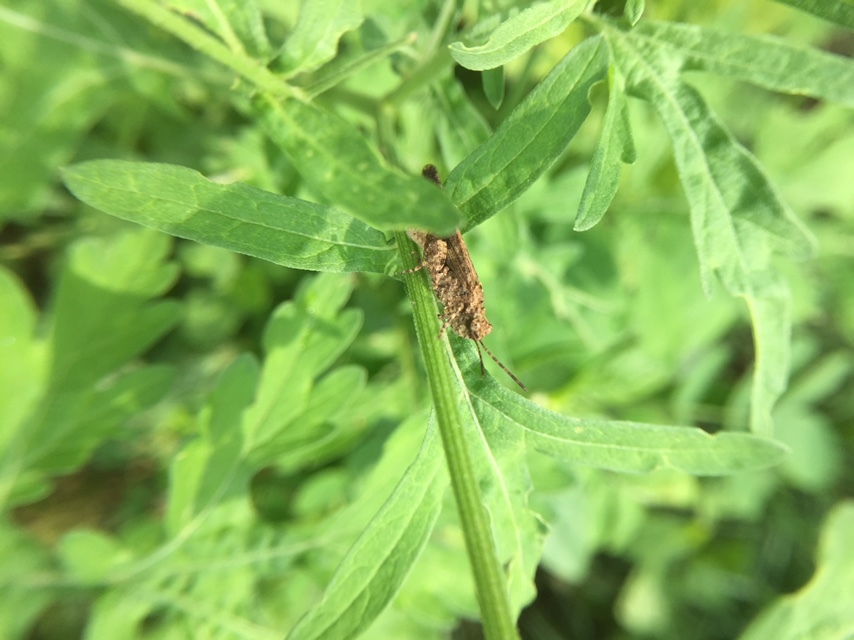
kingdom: Animalia
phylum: Arthropoda
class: Insecta
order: Orthoptera
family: Acrididae
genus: Trilophidia
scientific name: Trilophidia annulata
